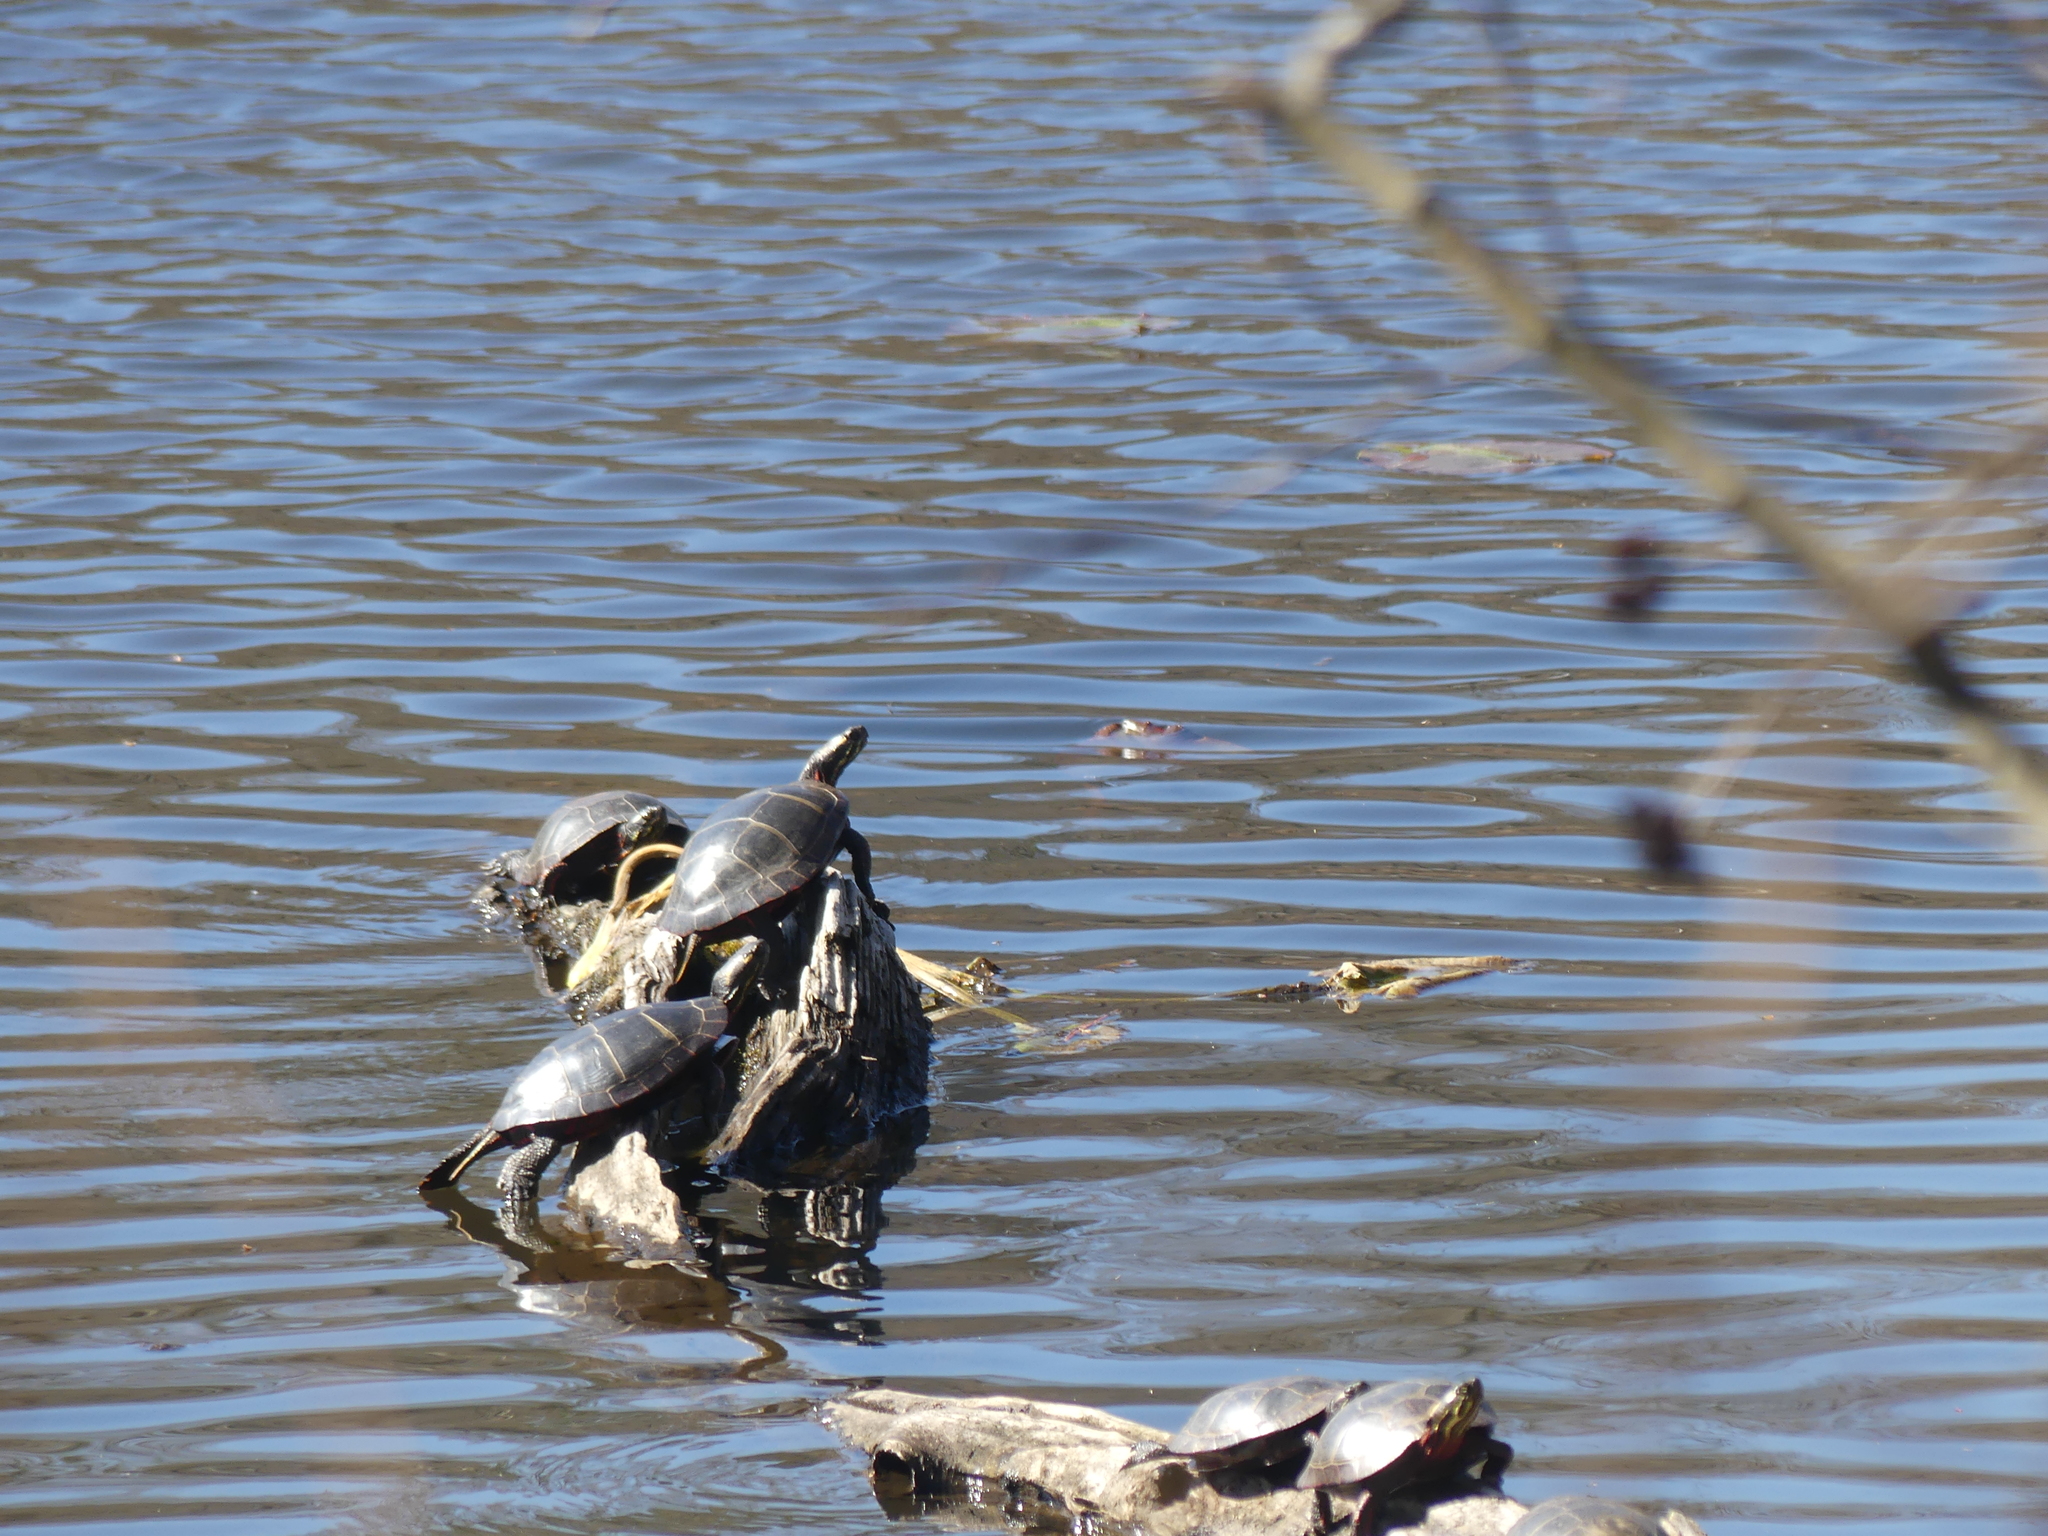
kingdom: Animalia
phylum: Chordata
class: Testudines
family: Emydidae
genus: Chrysemys
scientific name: Chrysemys picta
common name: Painted turtle
